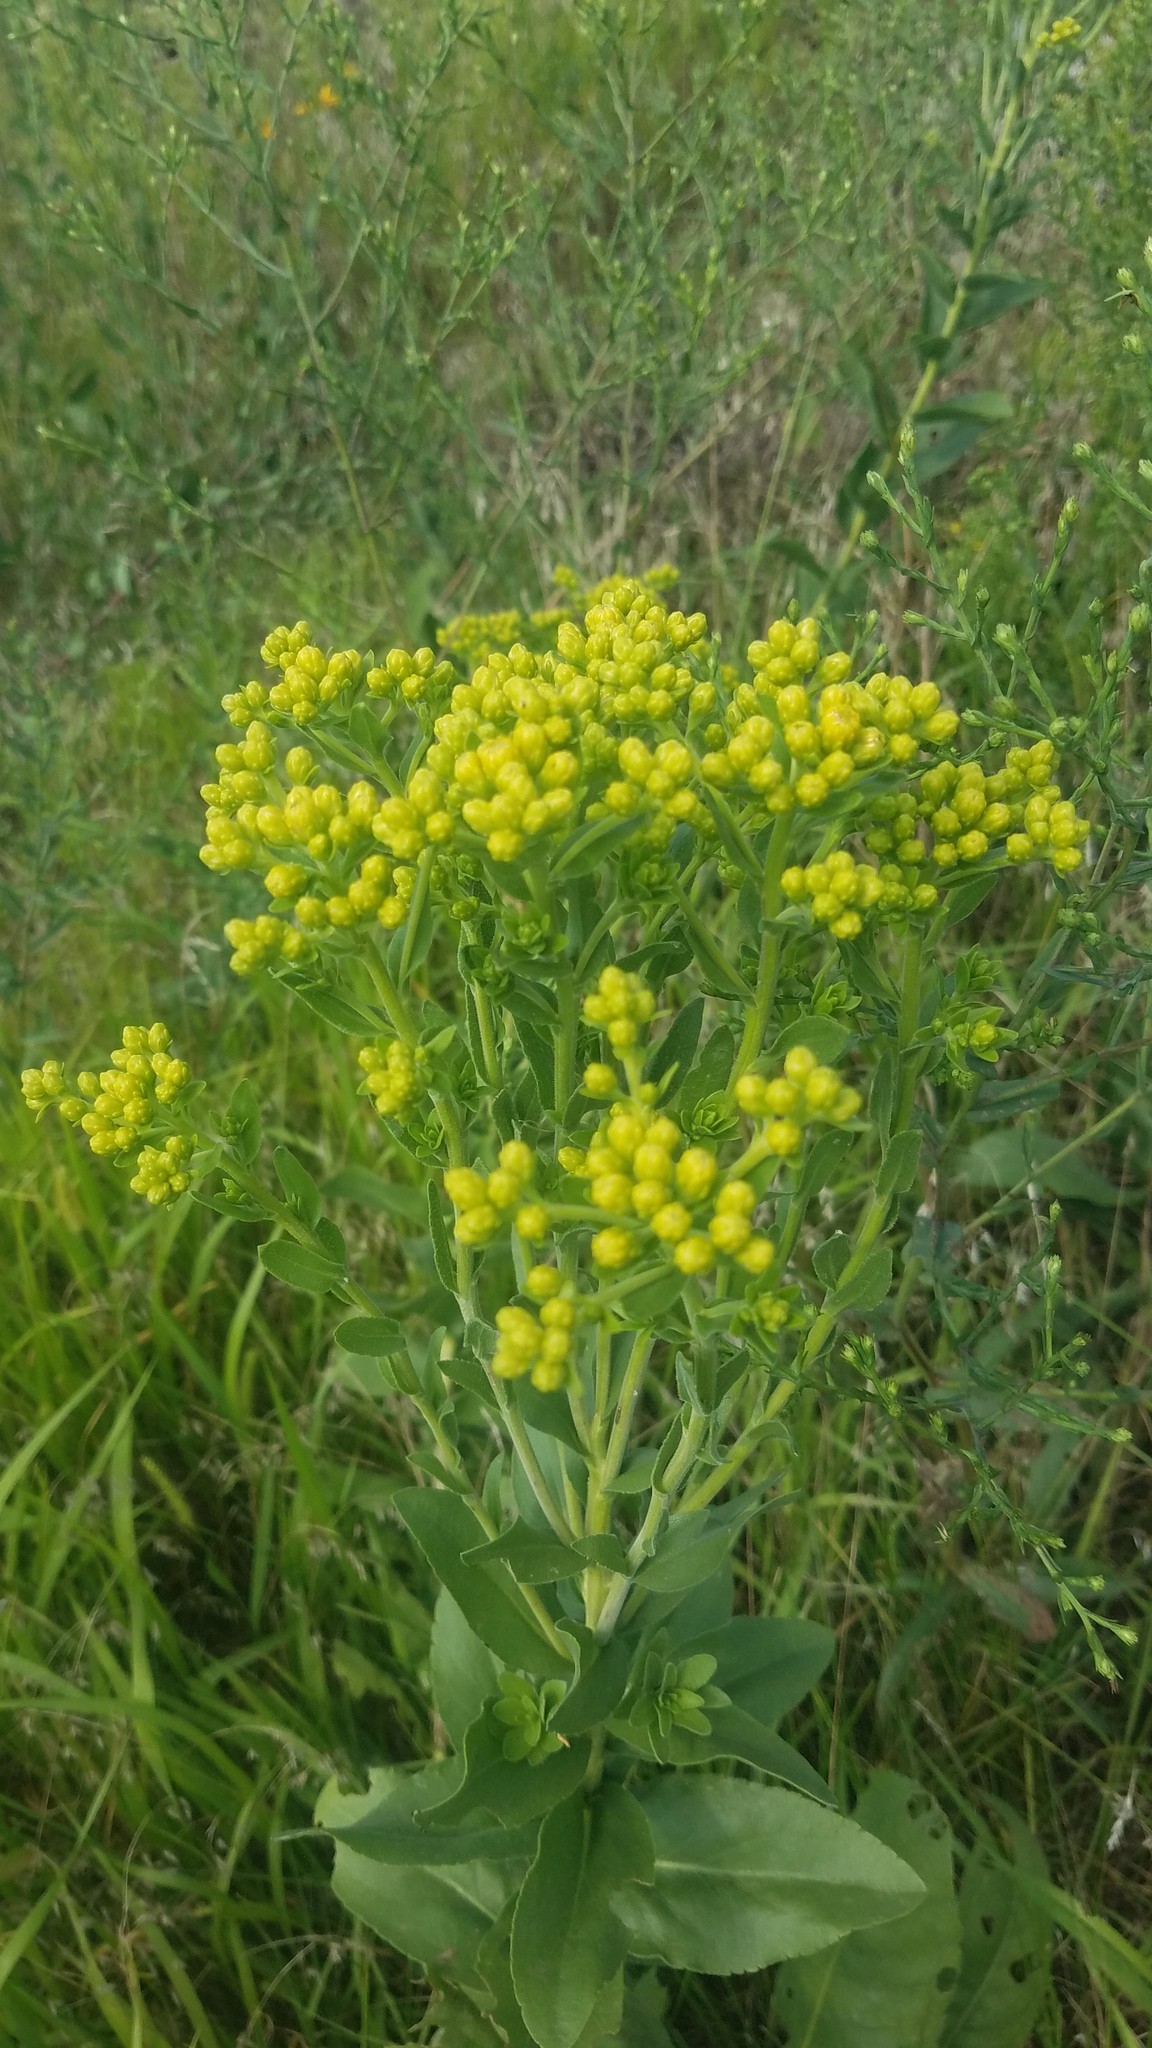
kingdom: Plantae
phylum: Tracheophyta
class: Magnoliopsida
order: Asterales
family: Asteraceae
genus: Solidago
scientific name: Solidago rigida
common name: Rigid goldenrod
